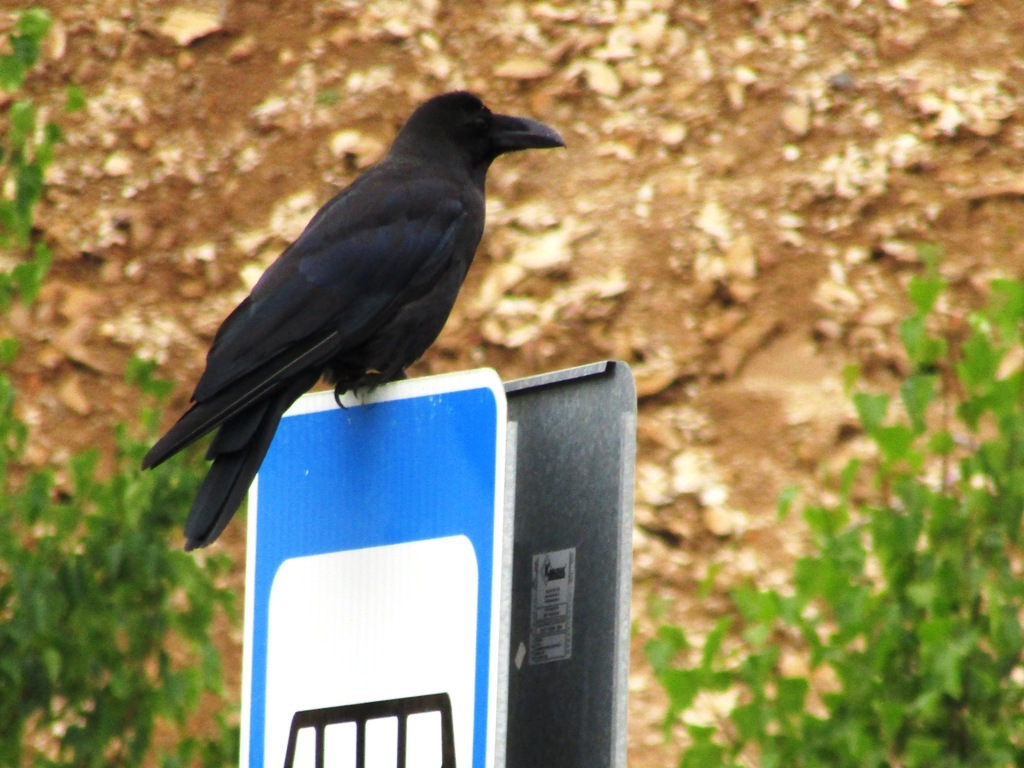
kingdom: Animalia
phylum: Chordata
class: Aves
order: Passeriformes
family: Corvidae
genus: Corvus
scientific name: Corvus macrorhynchos
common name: Large-billed crow
